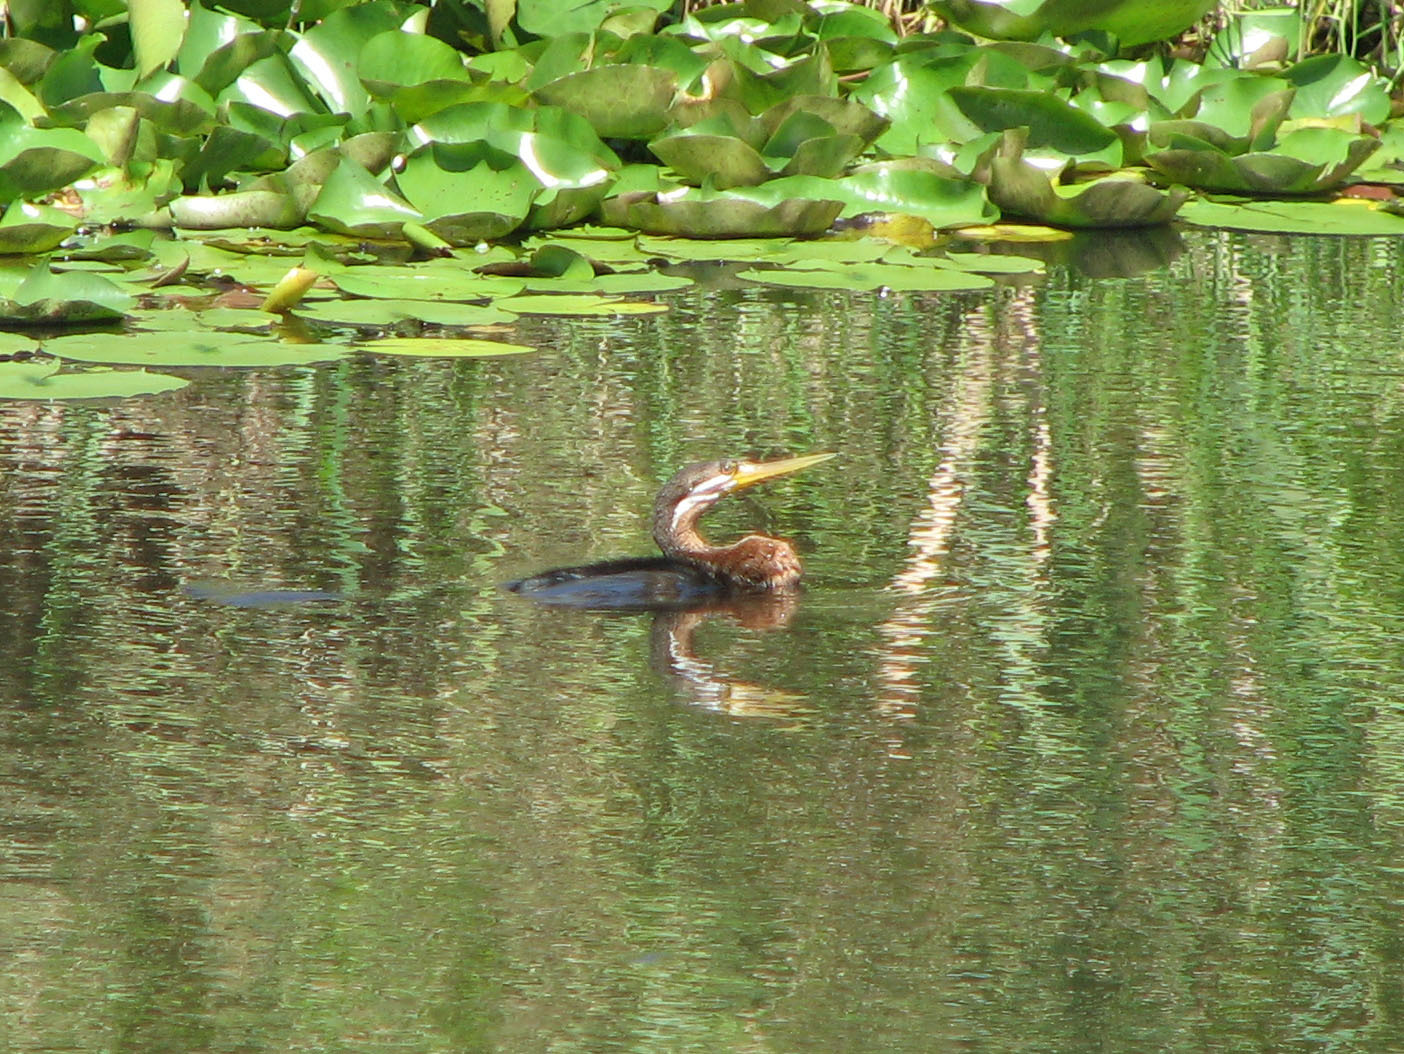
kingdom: Animalia
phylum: Chordata
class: Aves
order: Suliformes
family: Anhingidae
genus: Anhinga
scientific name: Anhinga novaehollandiae
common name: Australasian darter
